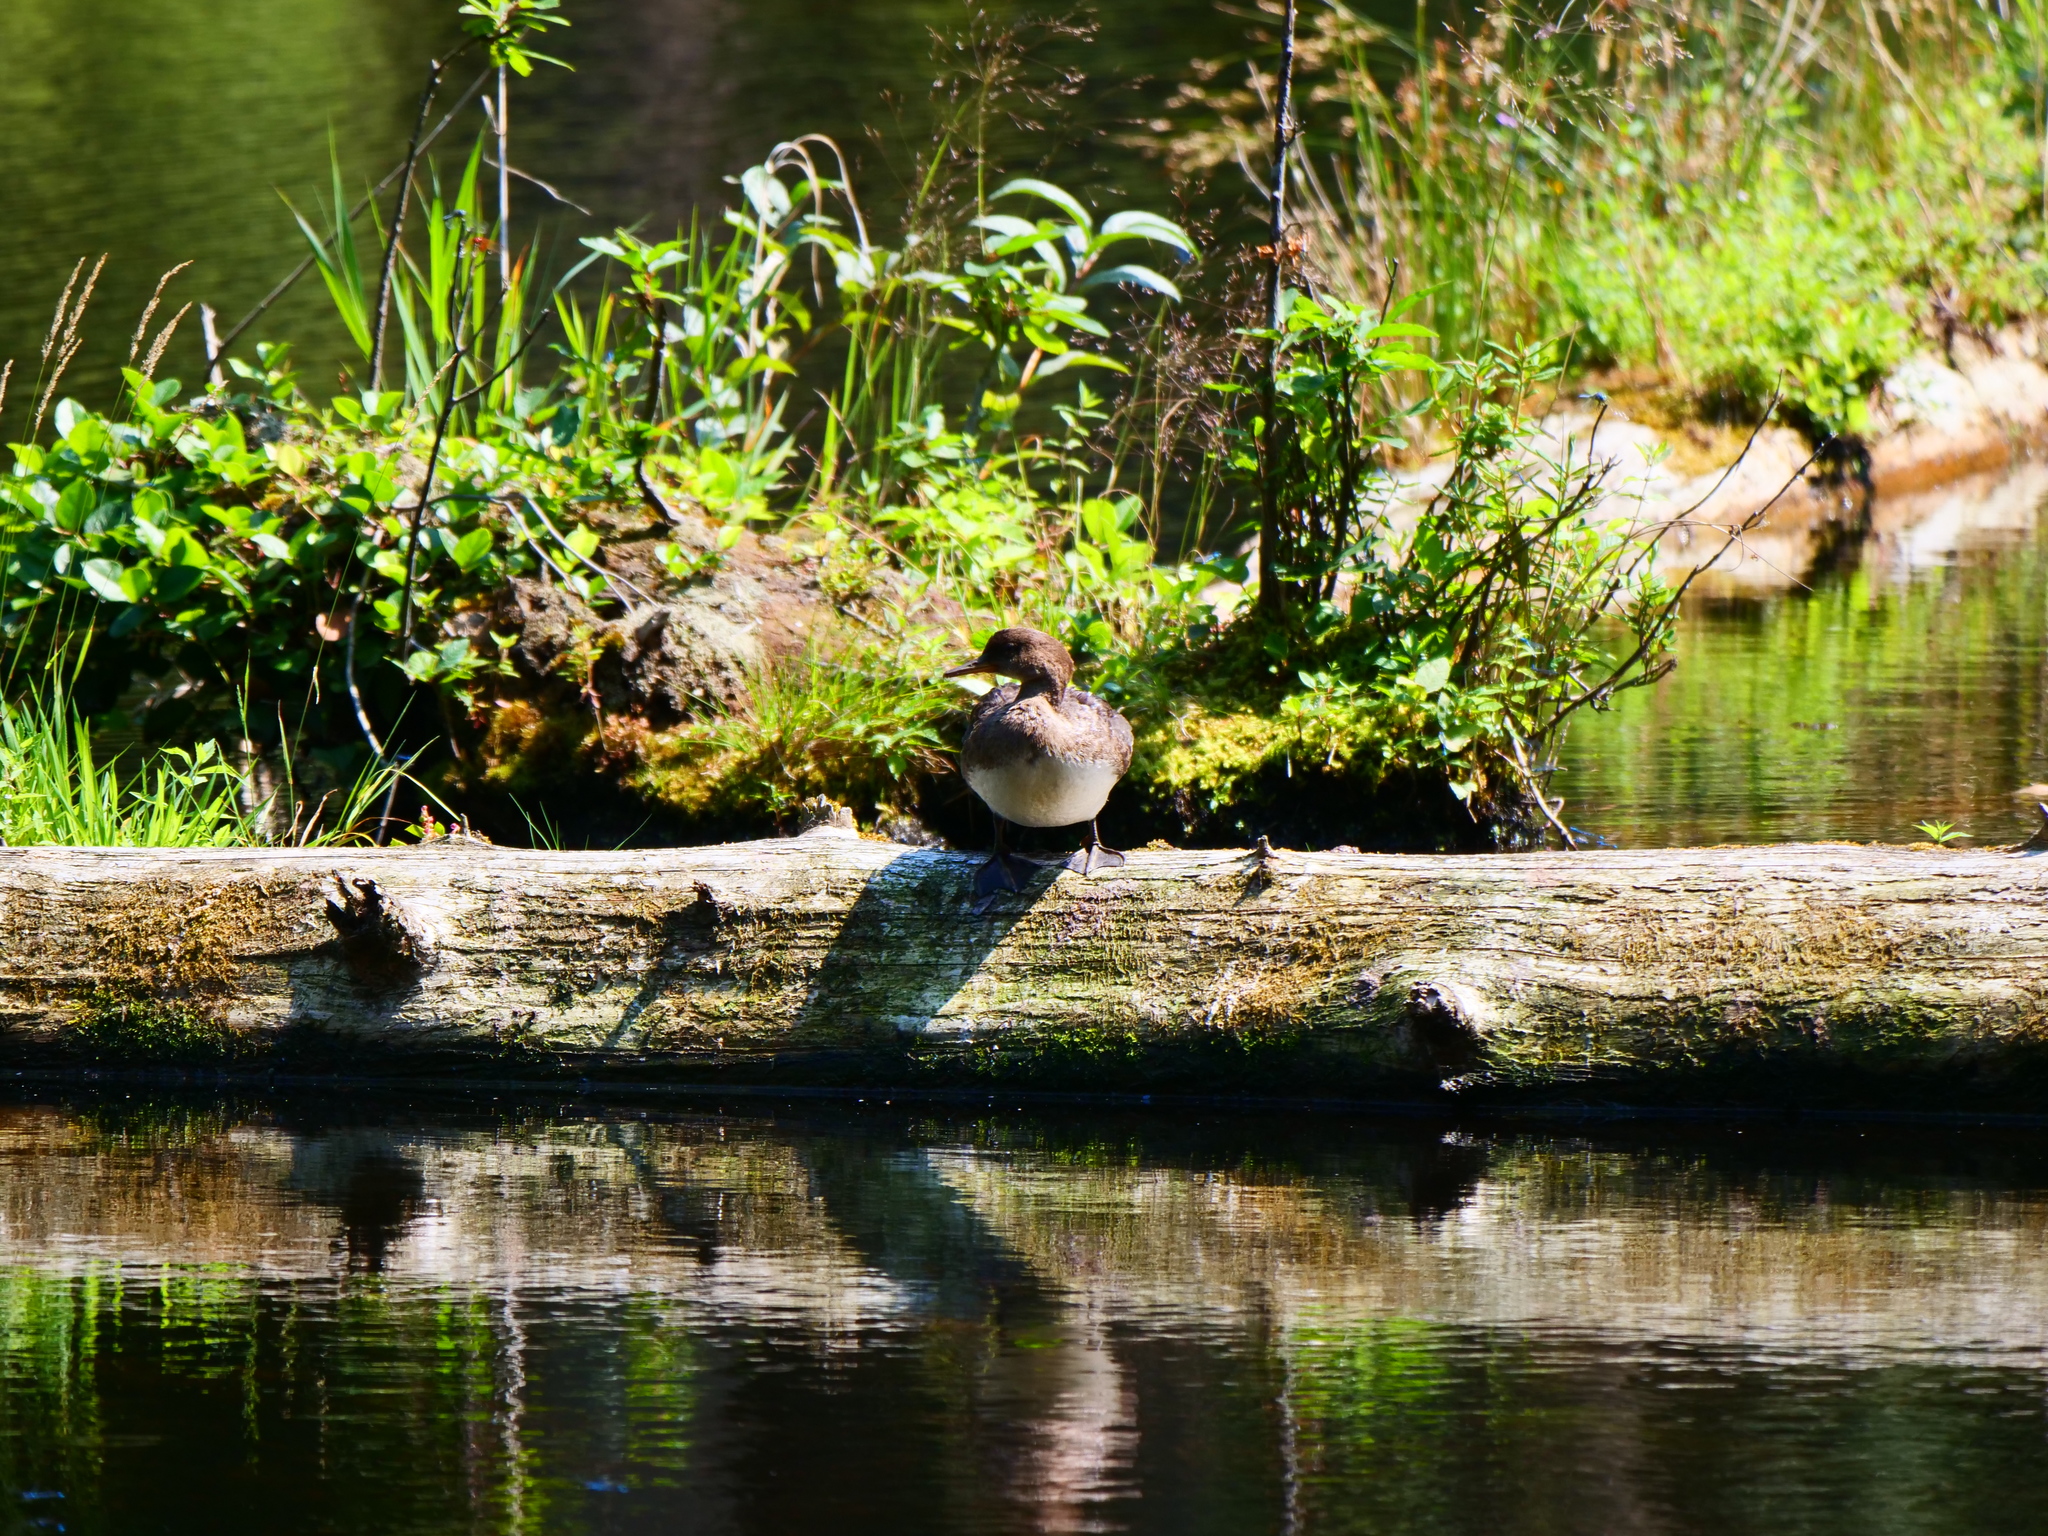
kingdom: Animalia
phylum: Chordata
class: Aves
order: Anseriformes
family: Anatidae
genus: Lophodytes
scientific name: Lophodytes cucullatus
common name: Hooded merganser
